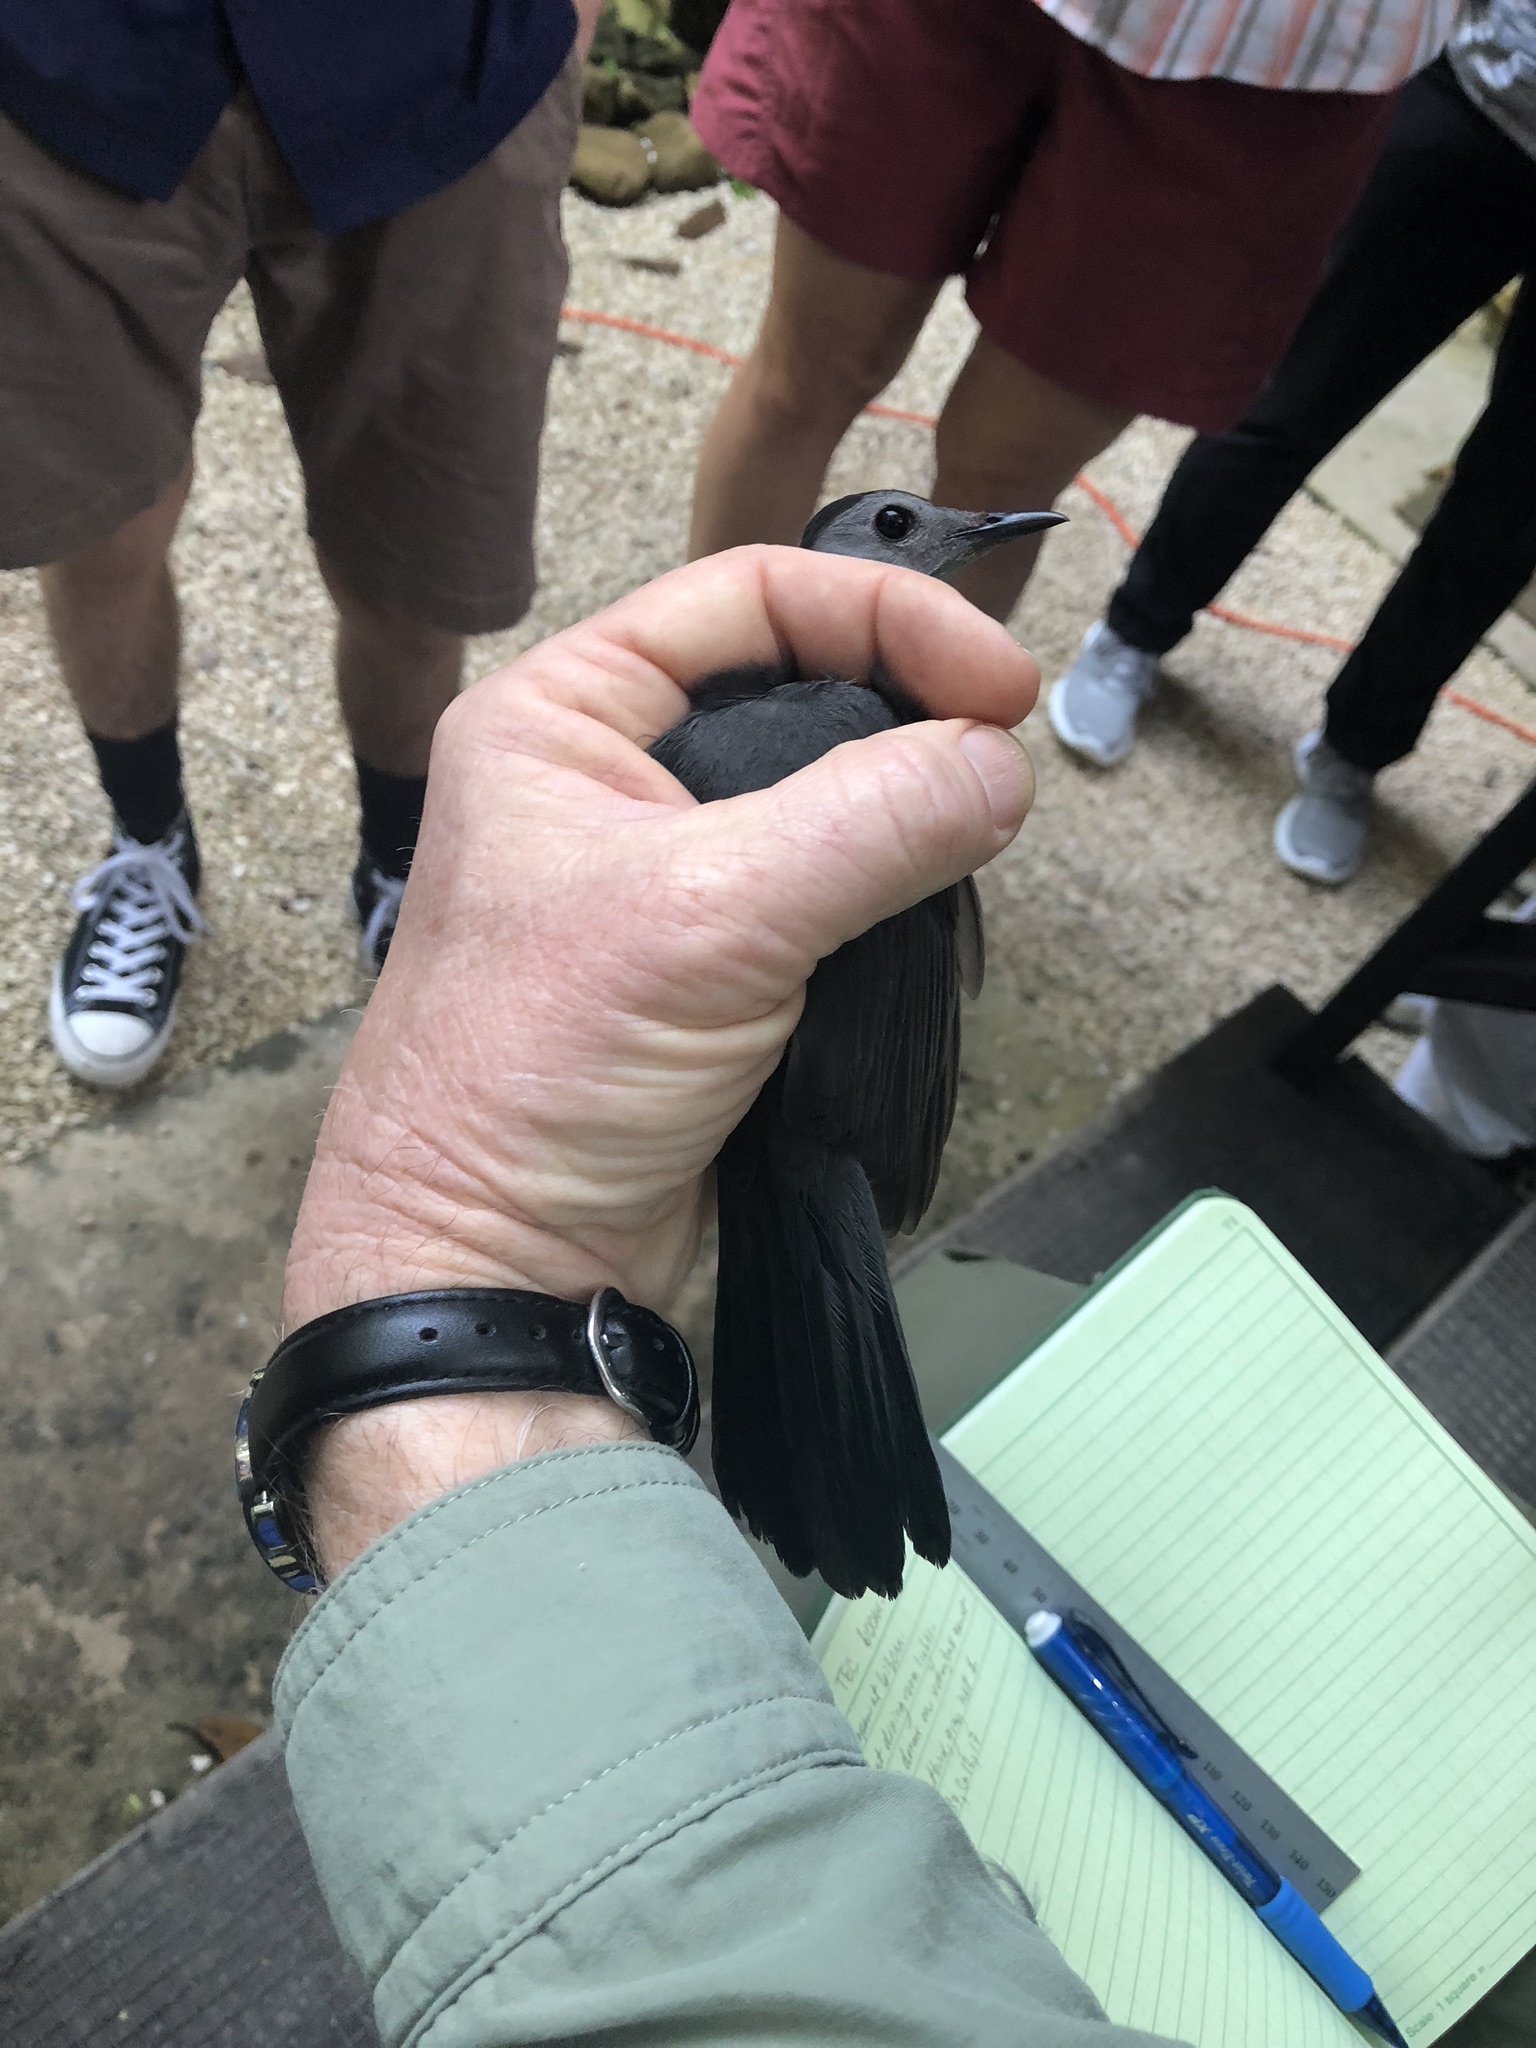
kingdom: Animalia
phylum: Chordata
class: Aves
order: Passeriformes
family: Mimidae
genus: Dumetella
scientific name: Dumetella carolinensis
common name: Gray catbird
